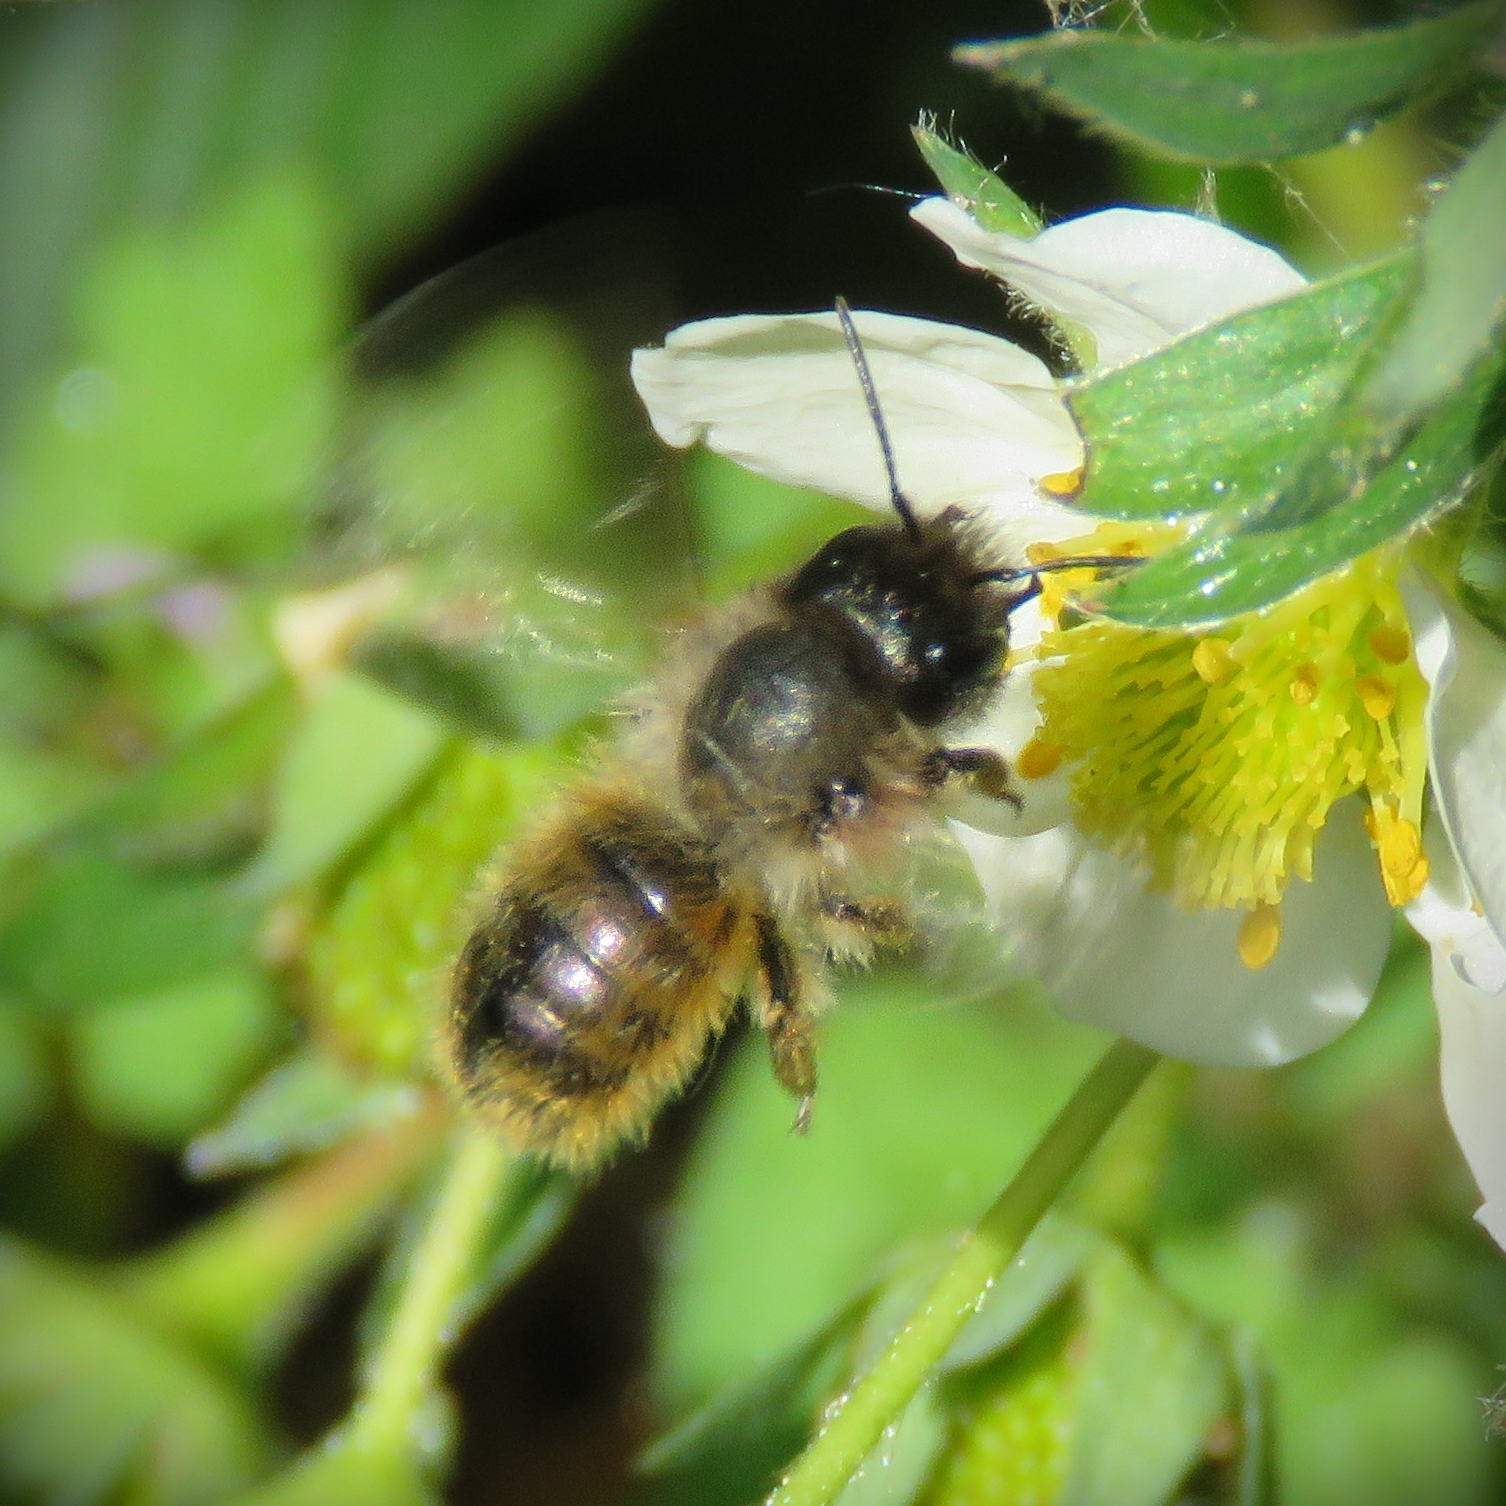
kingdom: Animalia
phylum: Arthropoda
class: Insecta
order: Hymenoptera
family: Megachilidae
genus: Osmia
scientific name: Osmia bicornis
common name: Red mason bee
